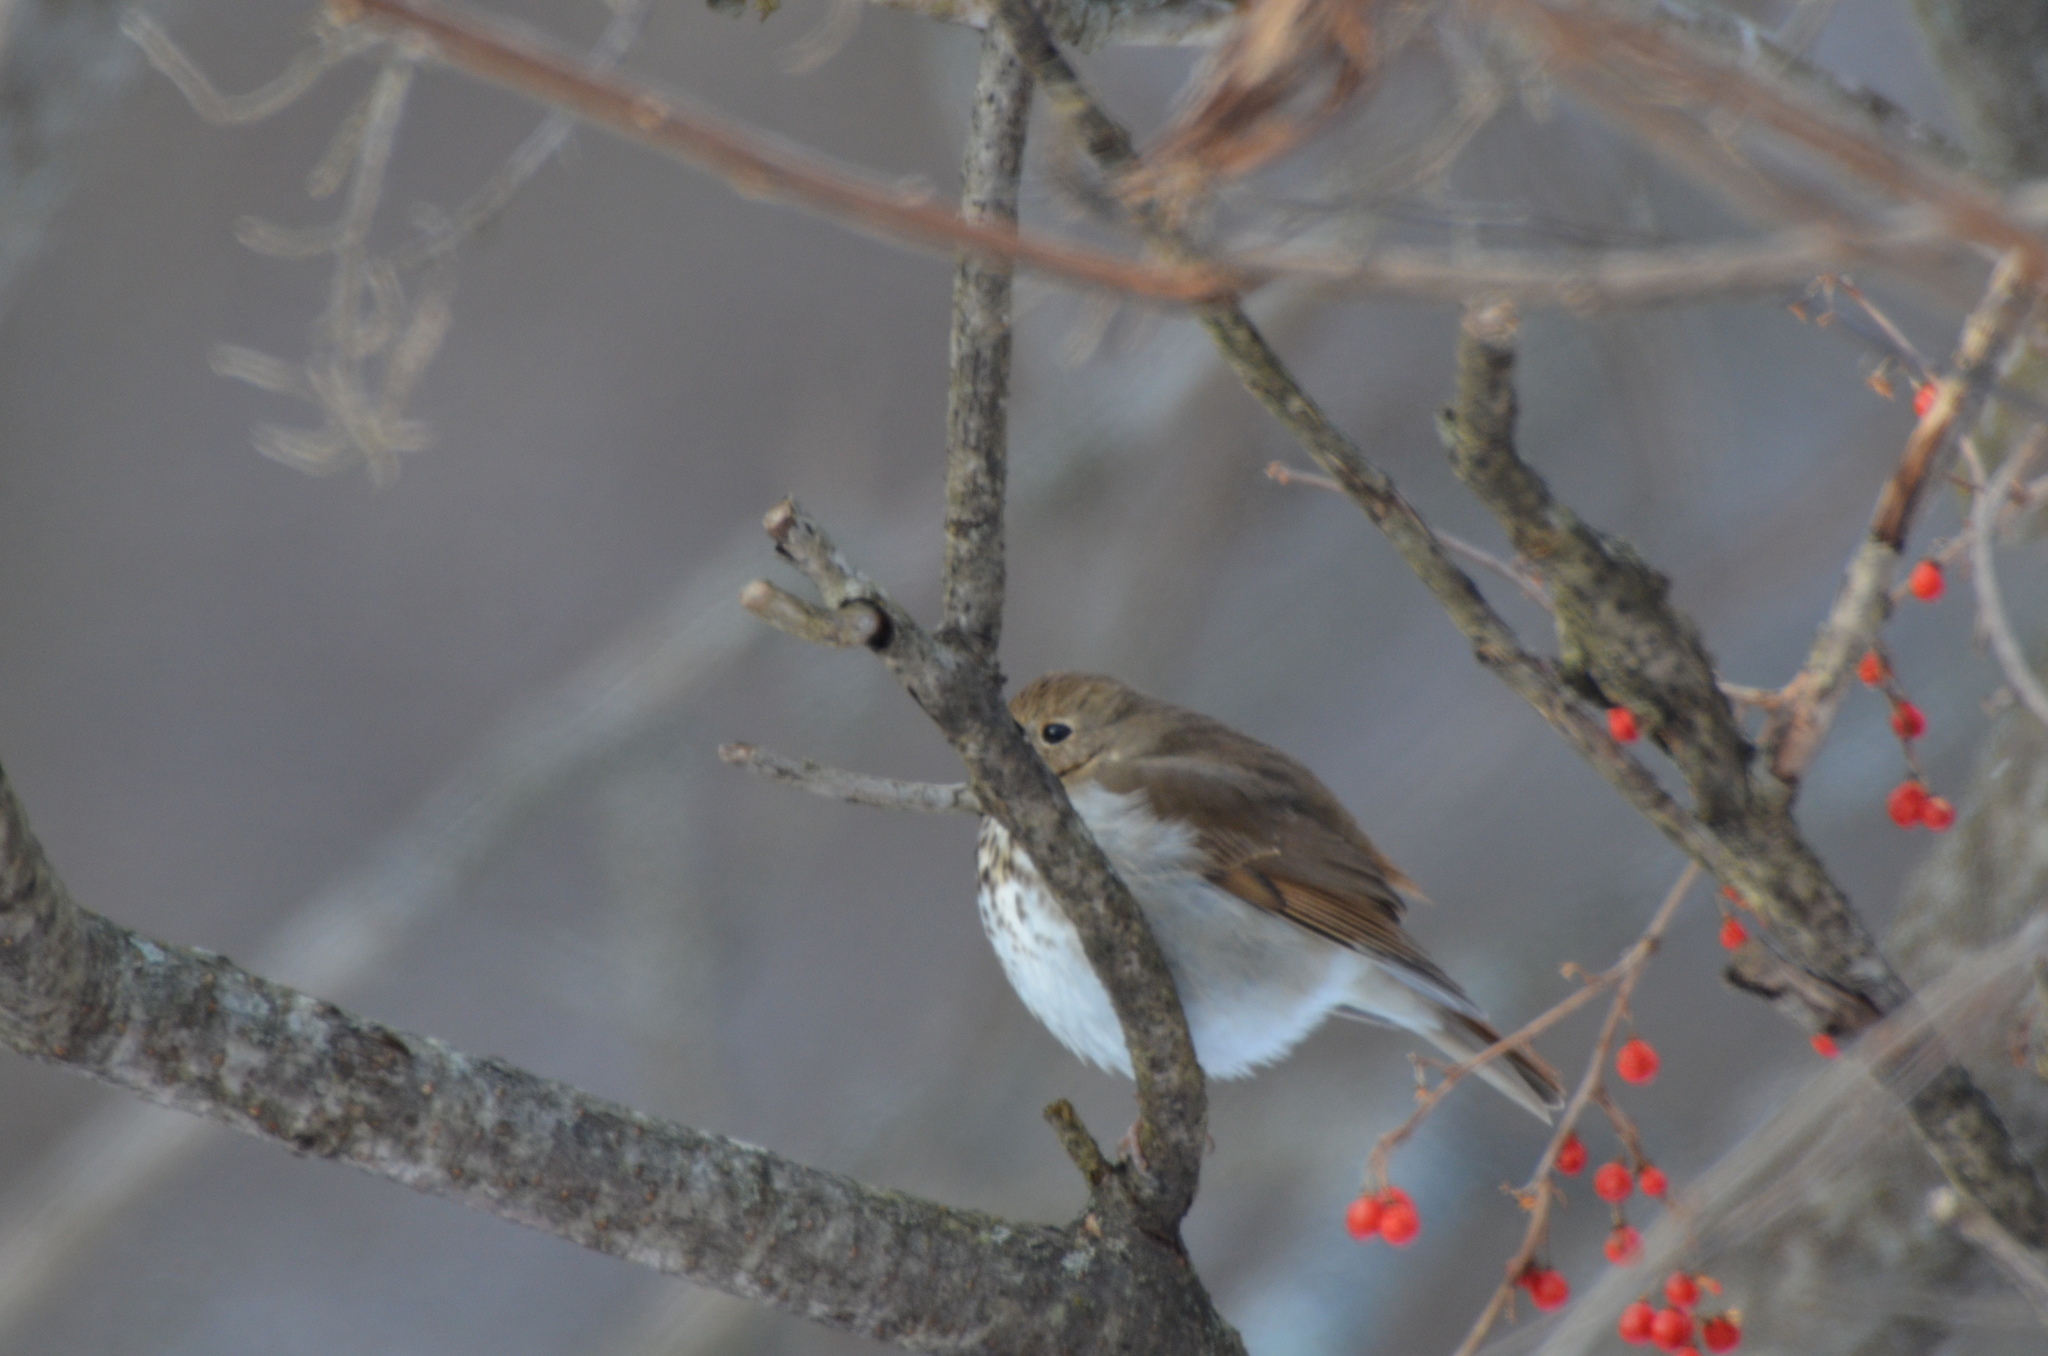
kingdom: Animalia
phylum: Chordata
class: Aves
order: Passeriformes
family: Turdidae
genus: Catharus
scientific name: Catharus guttatus
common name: Hermit thrush
